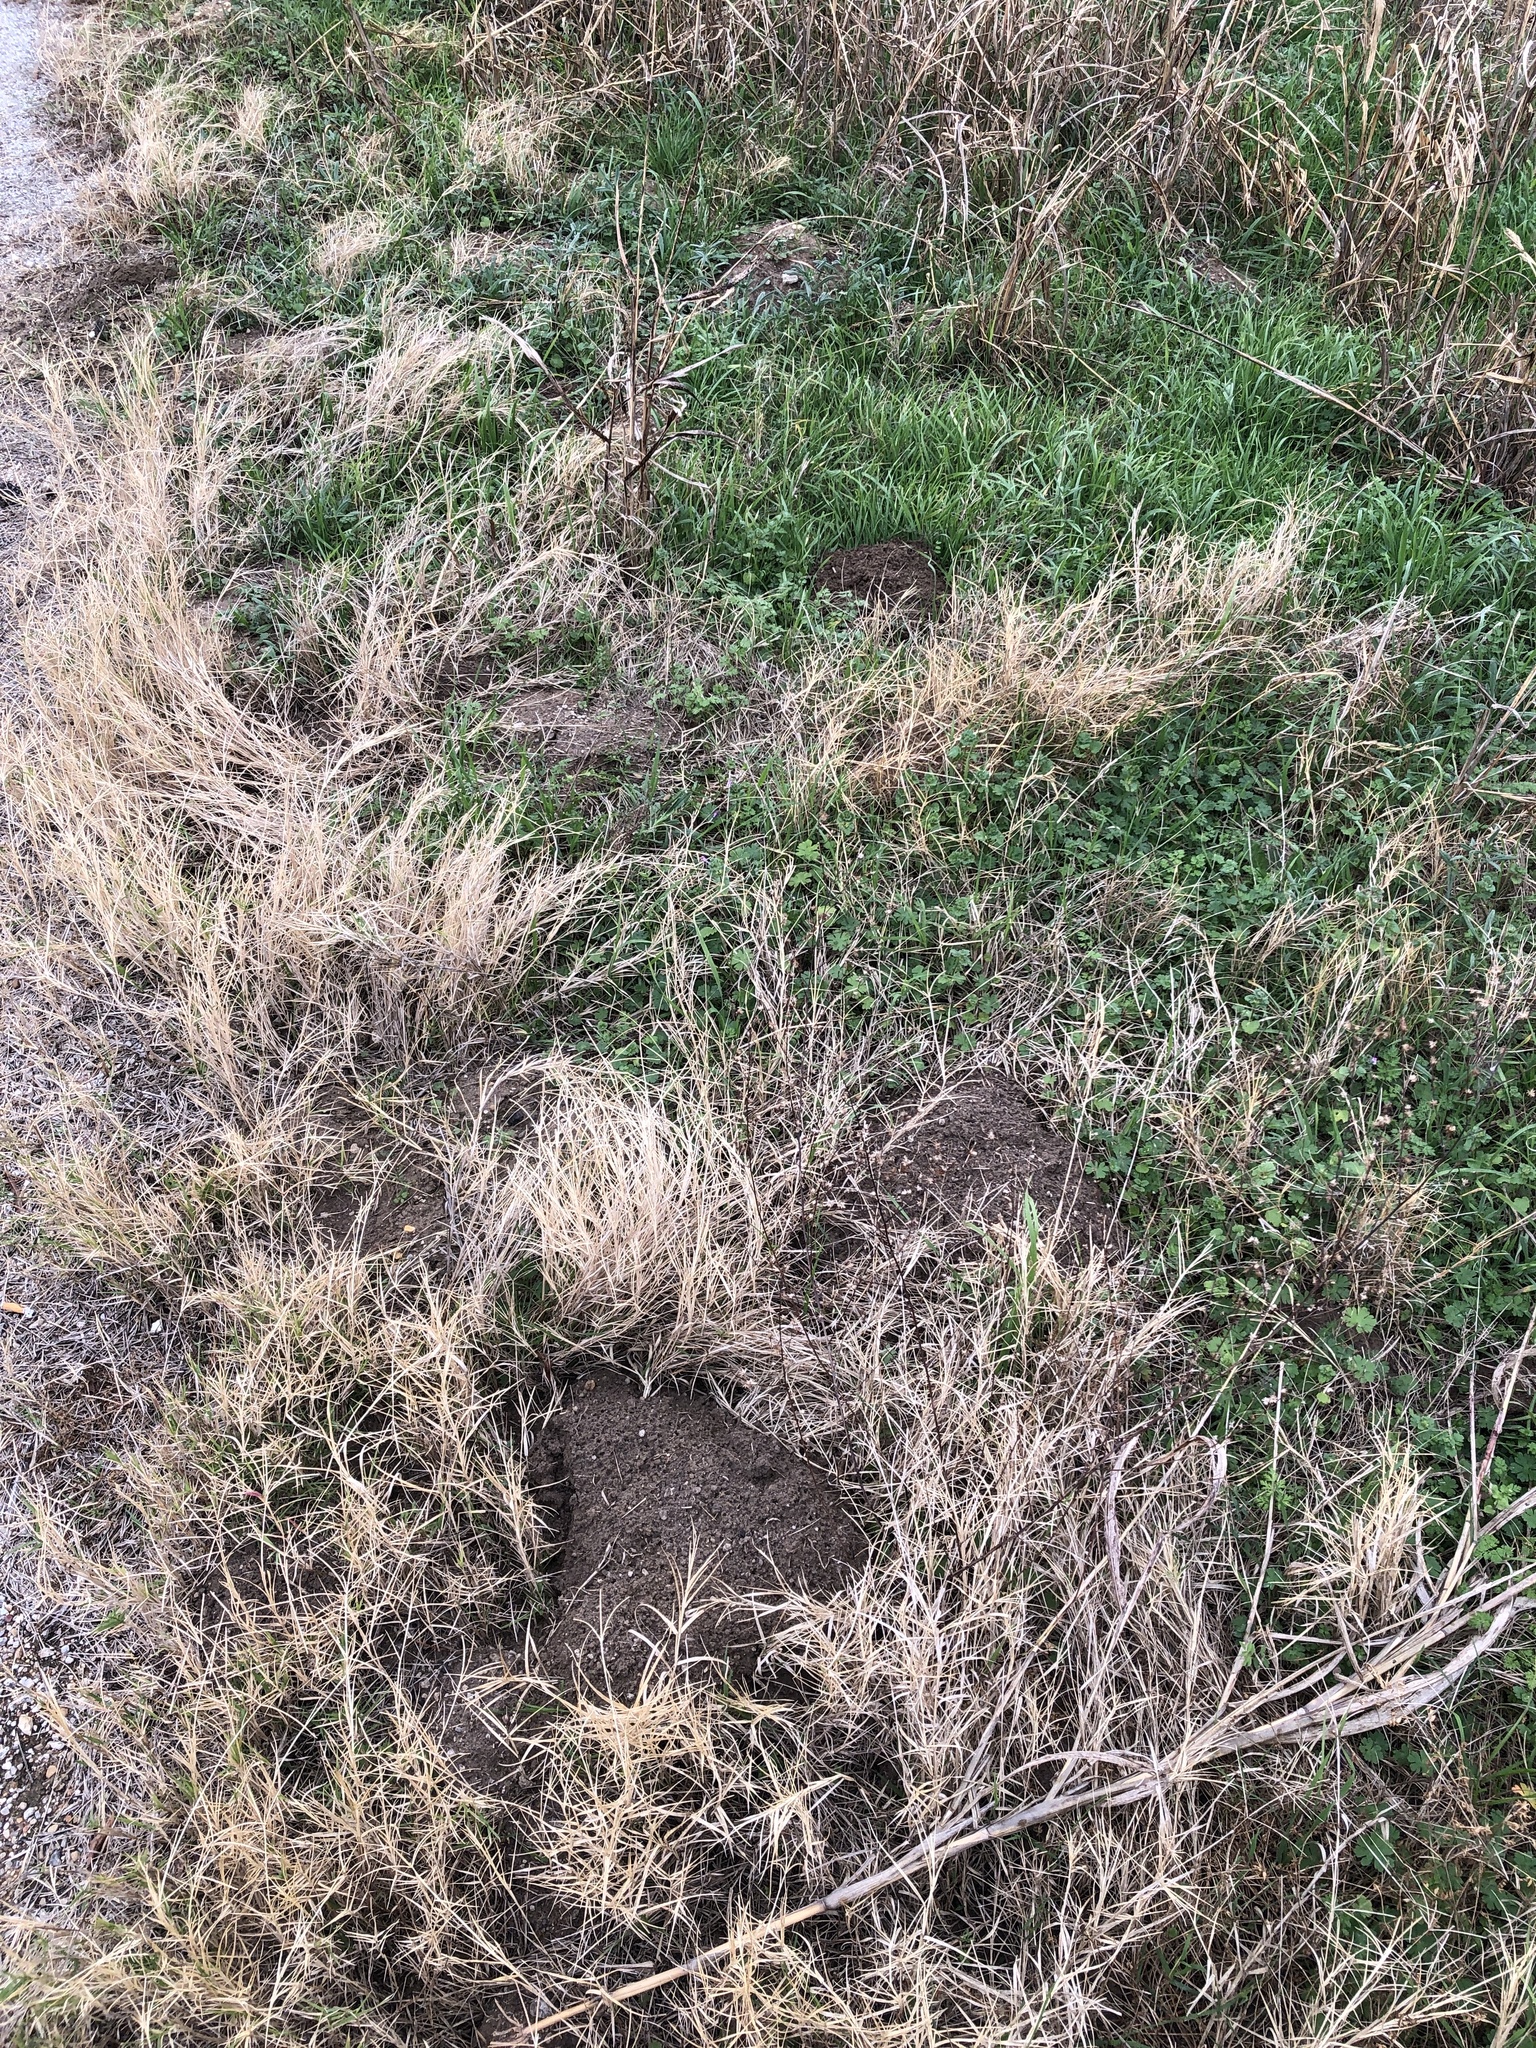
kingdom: Animalia
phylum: Chordata
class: Mammalia
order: Rodentia
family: Geomyidae
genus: Geomys
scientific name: Geomys bursarius
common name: Plains pocket gopher
